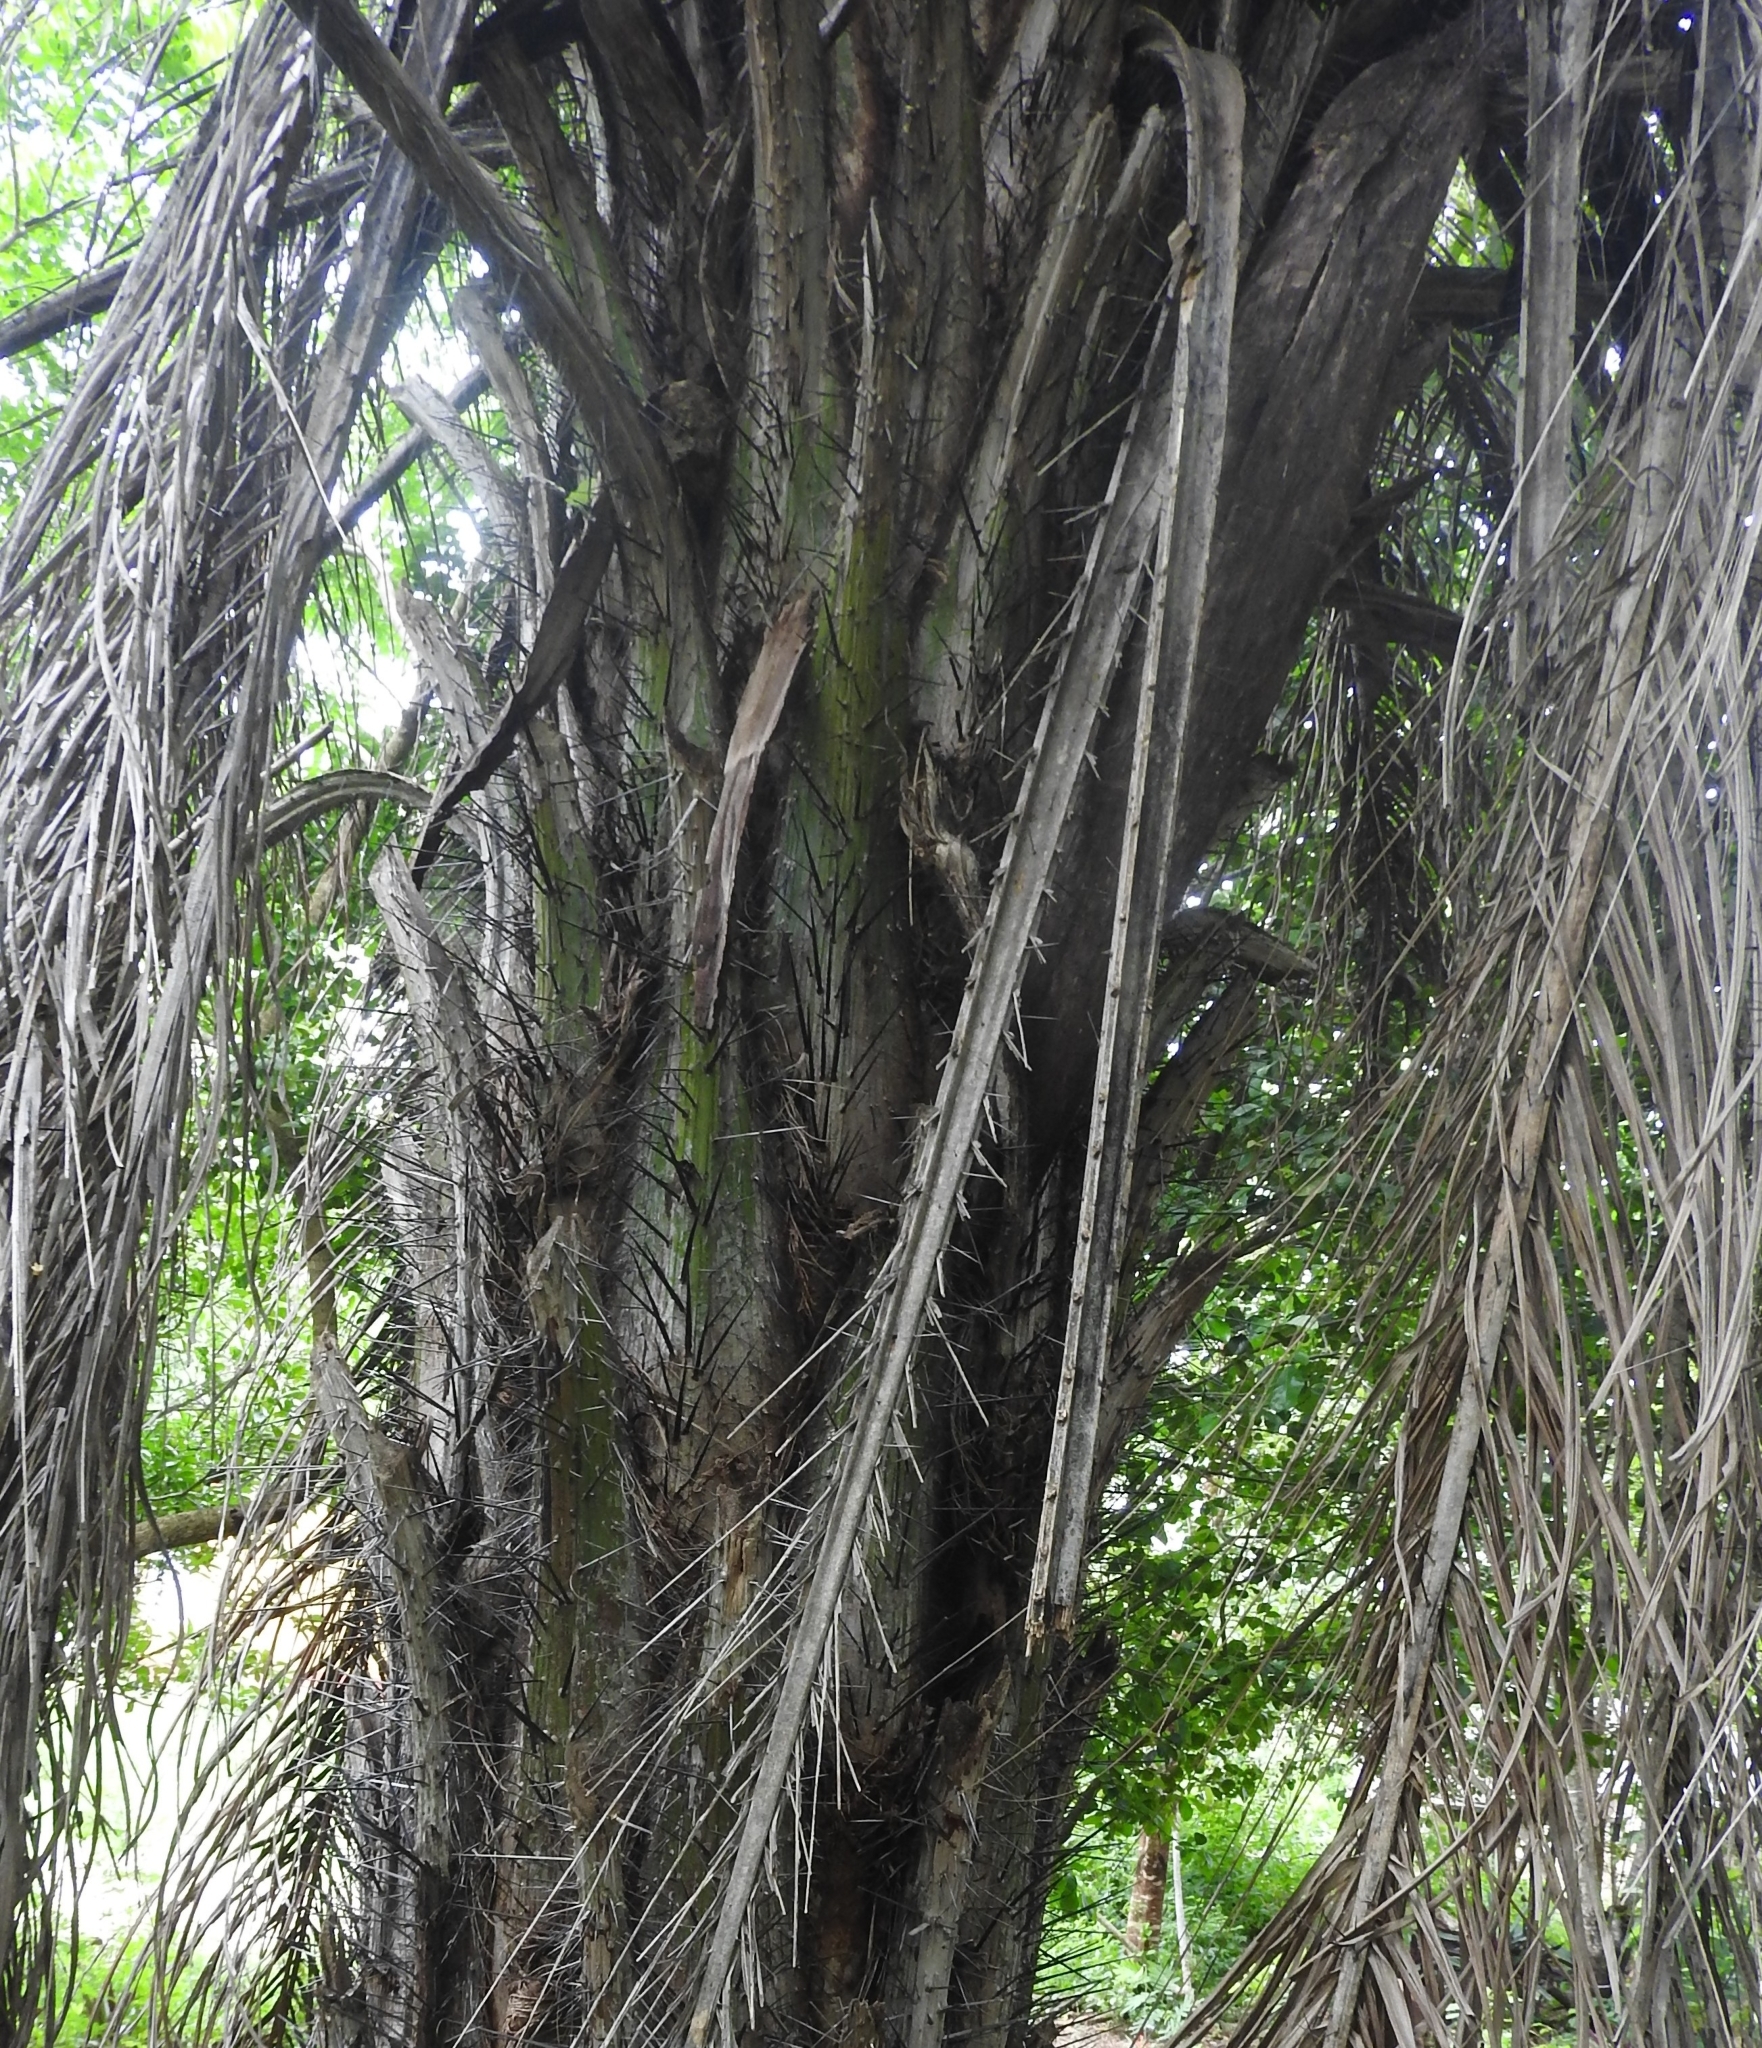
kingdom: Plantae
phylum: Tracheophyta
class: Liliopsida
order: Arecales
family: Arecaceae
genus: Acrocomia
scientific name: Acrocomia aculeata
